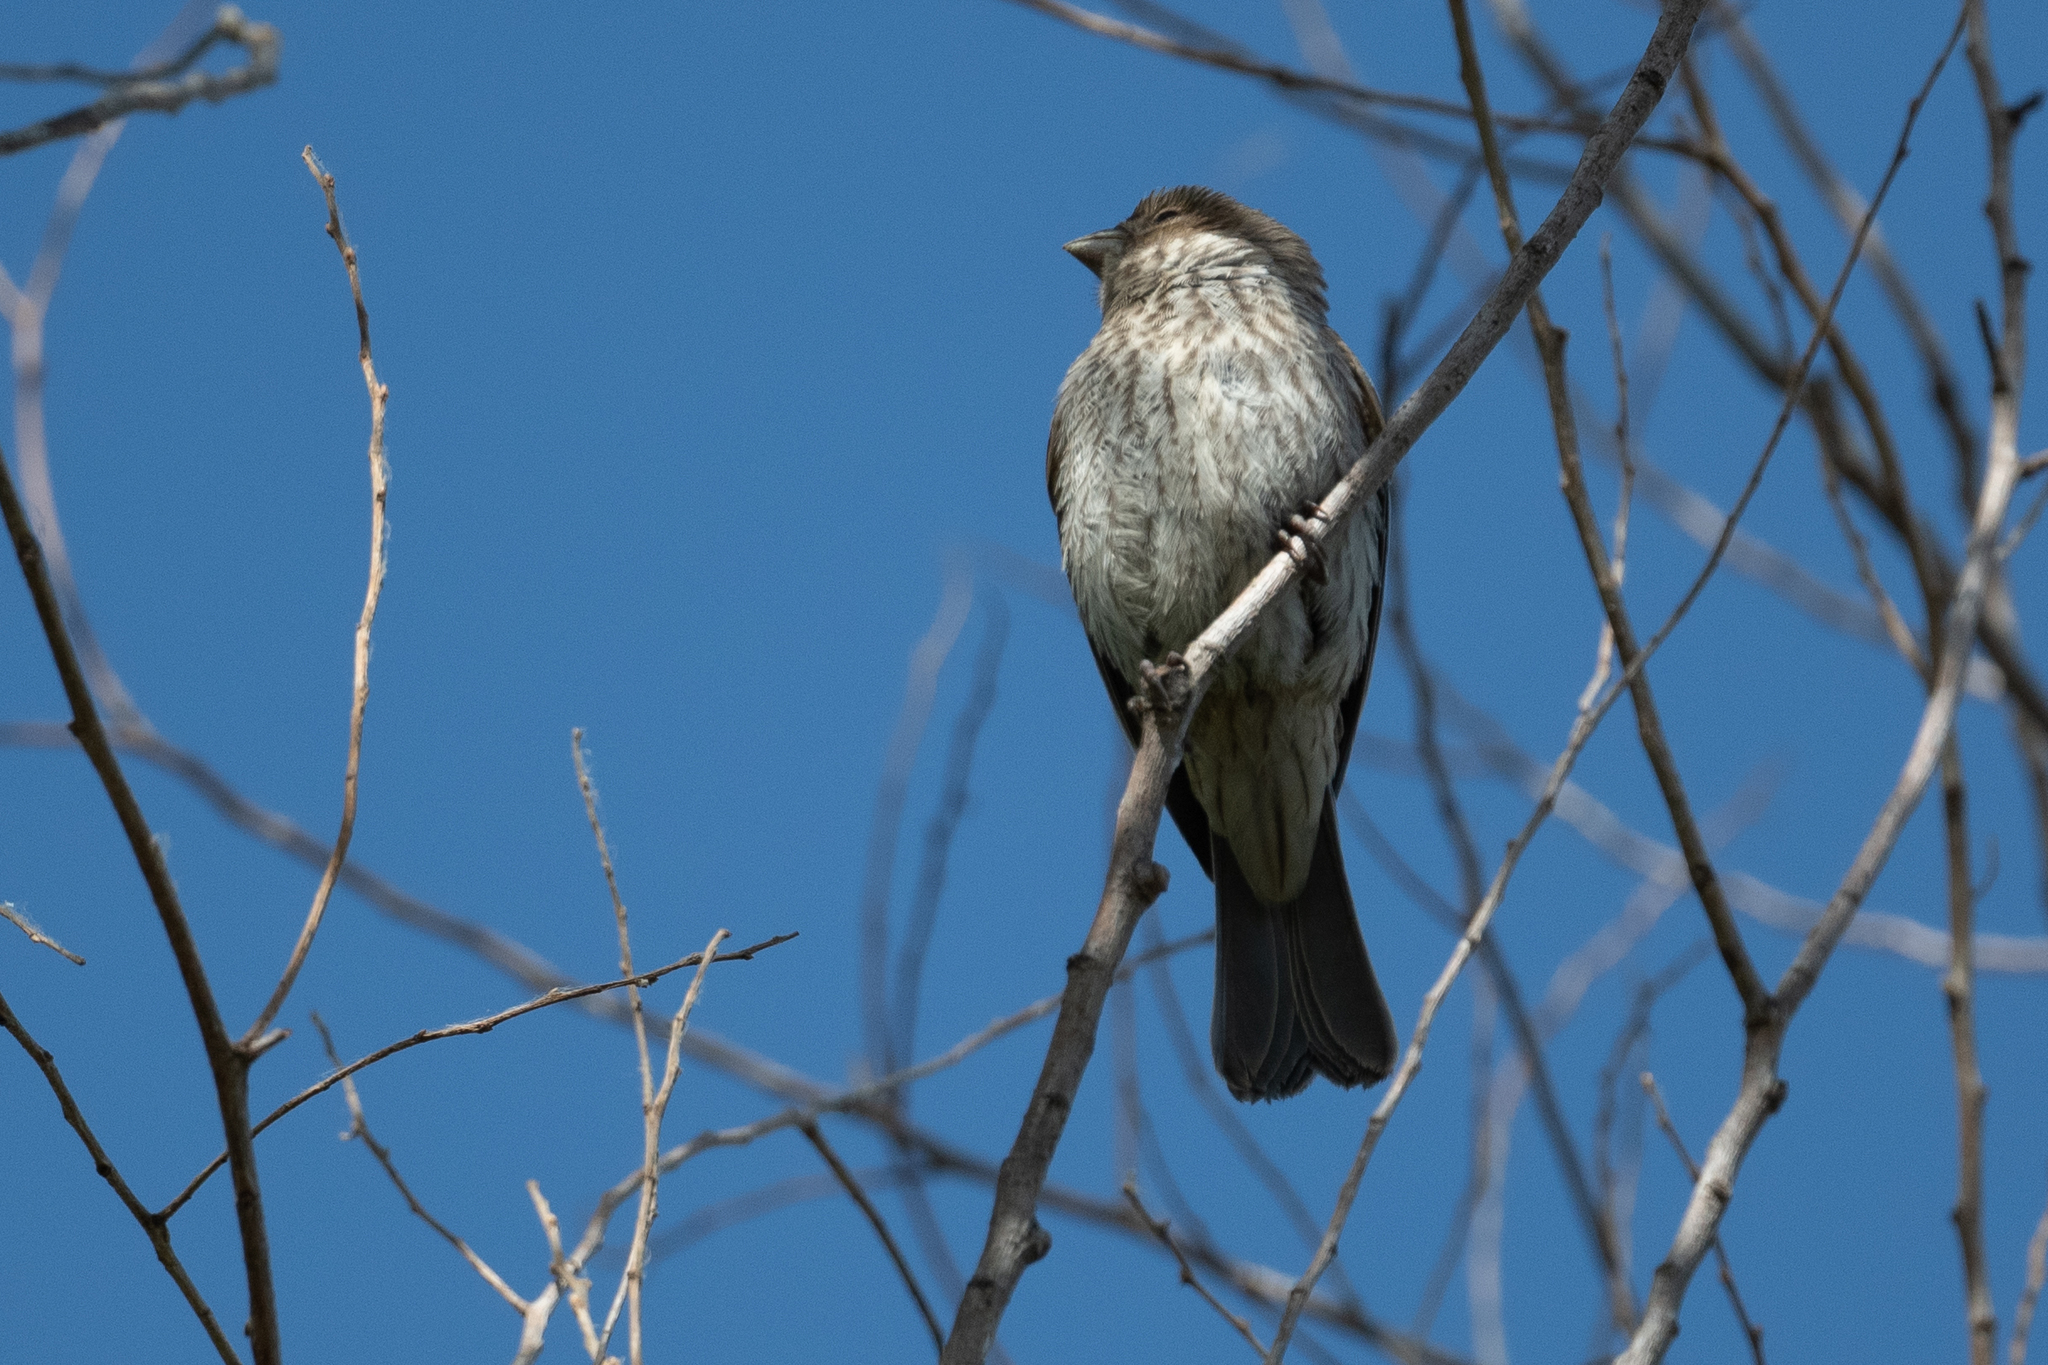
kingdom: Animalia
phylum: Chordata
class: Aves
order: Passeriformes
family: Fringillidae
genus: Haemorhous
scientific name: Haemorhous mexicanus
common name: House finch
